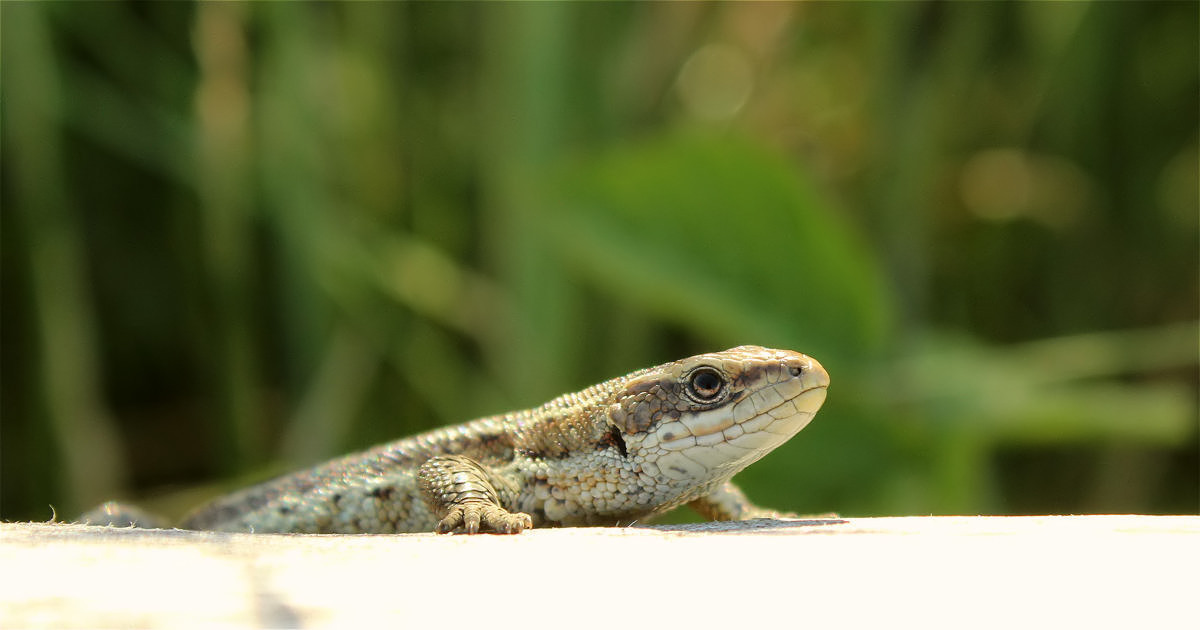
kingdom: Animalia
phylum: Chordata
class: Squamata
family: Lacertidae
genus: Zootoca
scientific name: Zootoca vivipara
